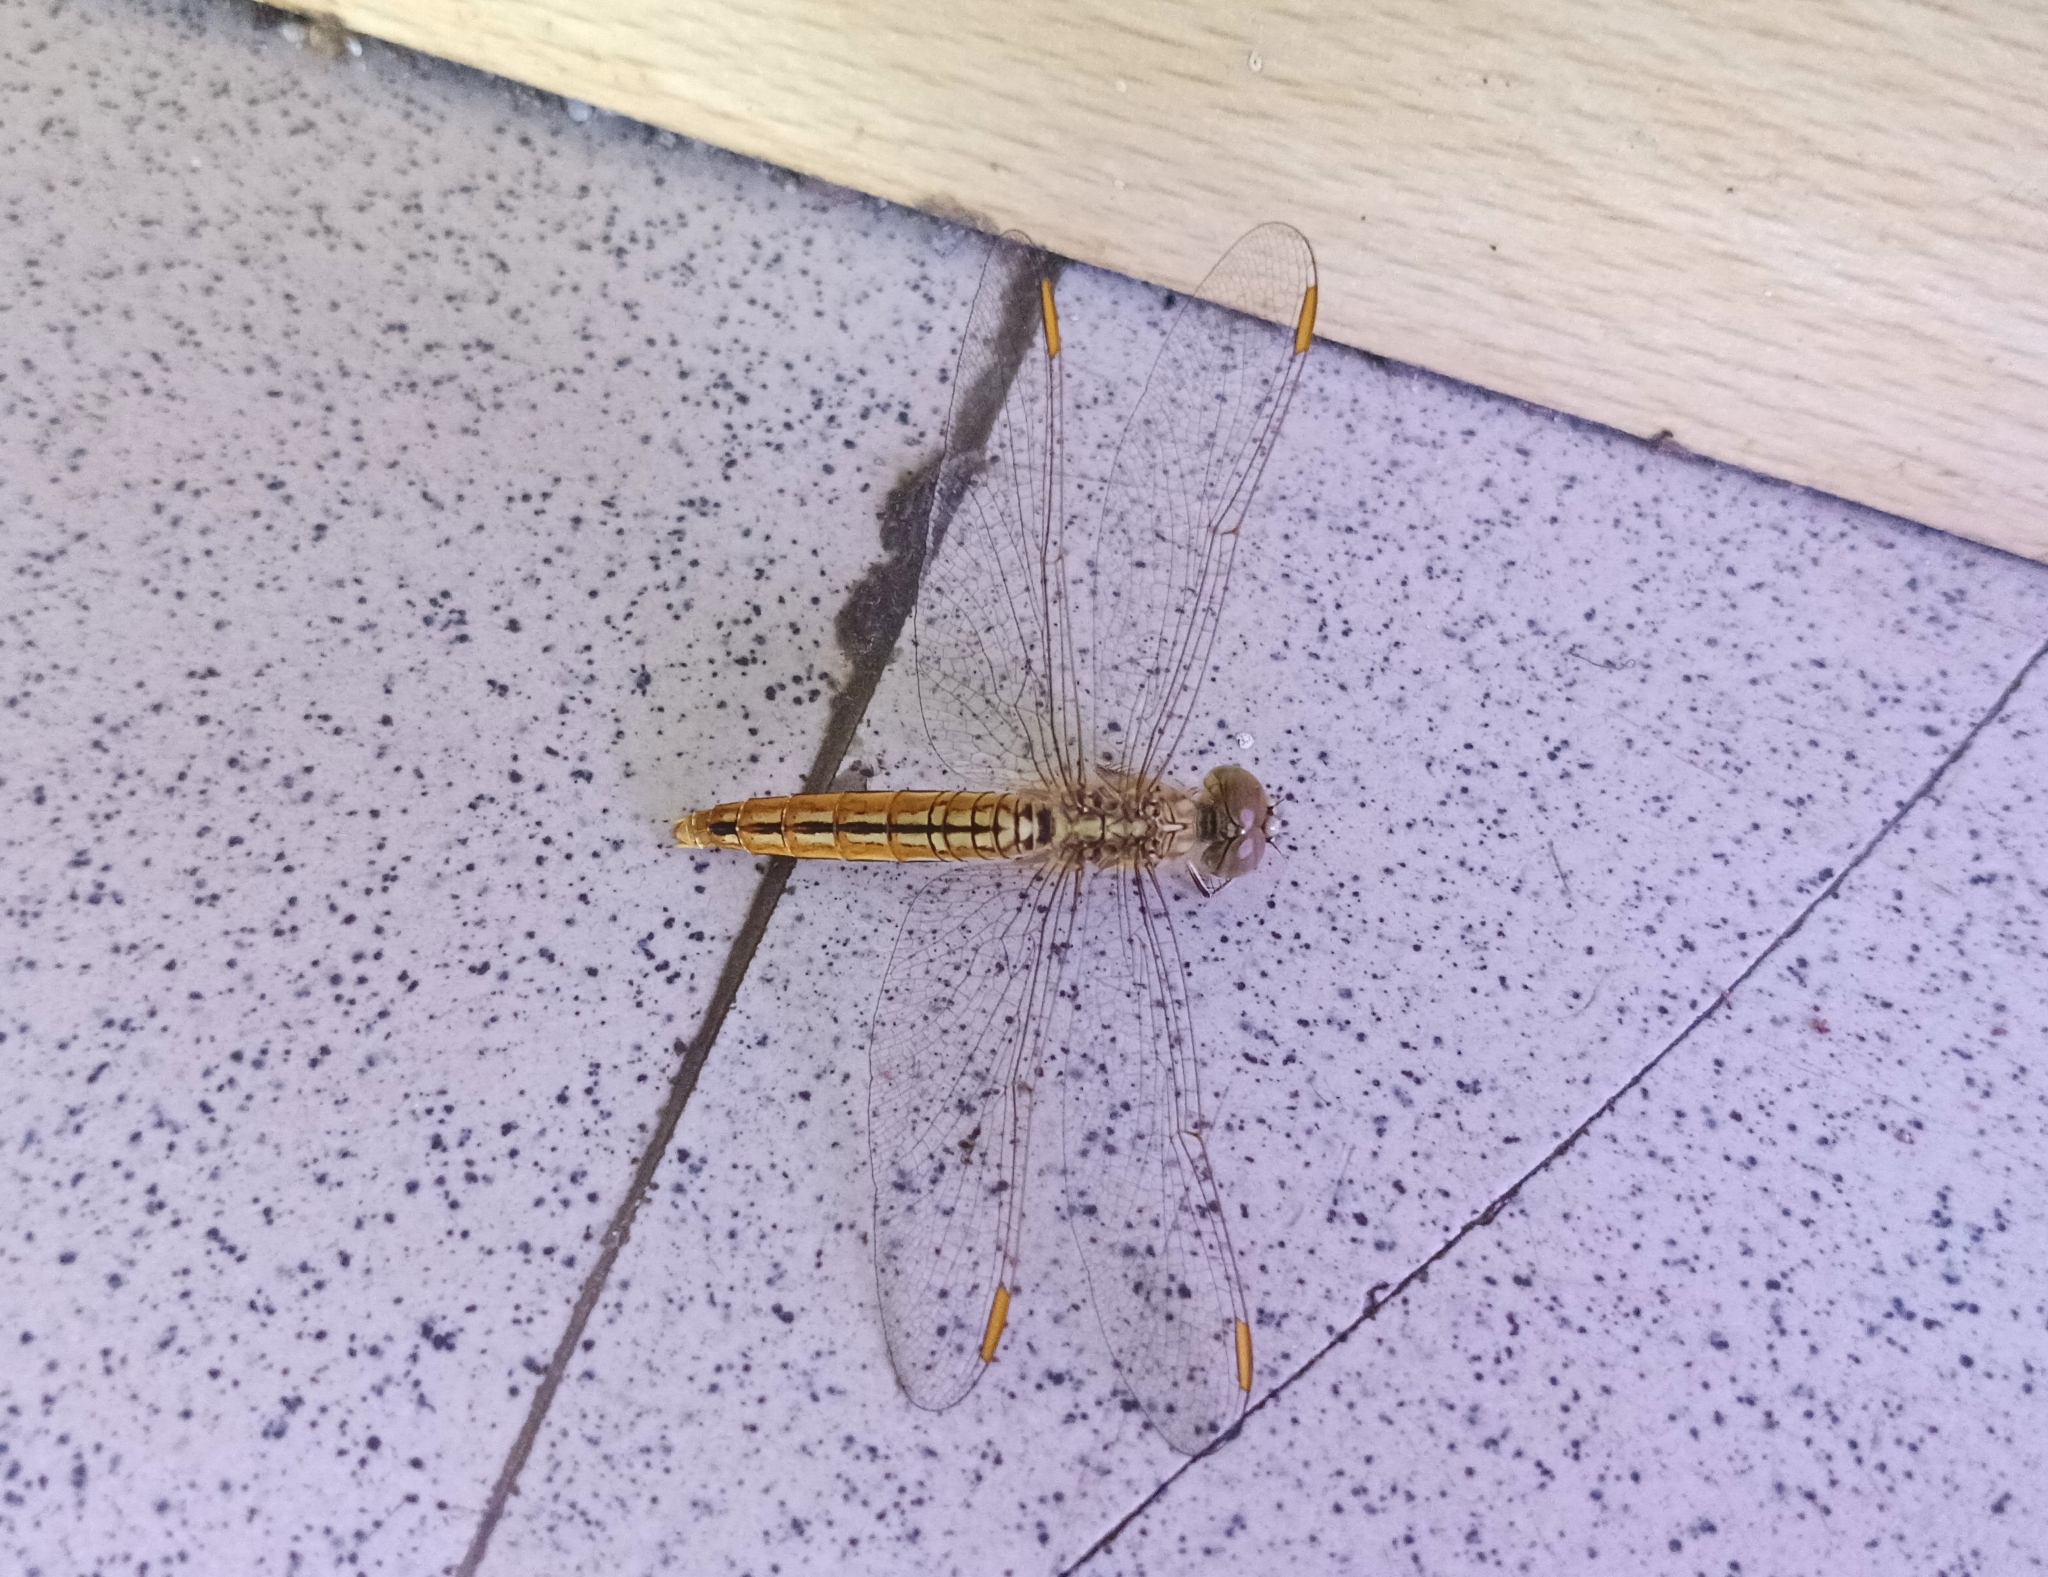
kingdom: Animalia
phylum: Arthropoda
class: Insecta
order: Odonata
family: Libellulidae
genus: Brachythemis
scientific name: Brachythemis contaminata
